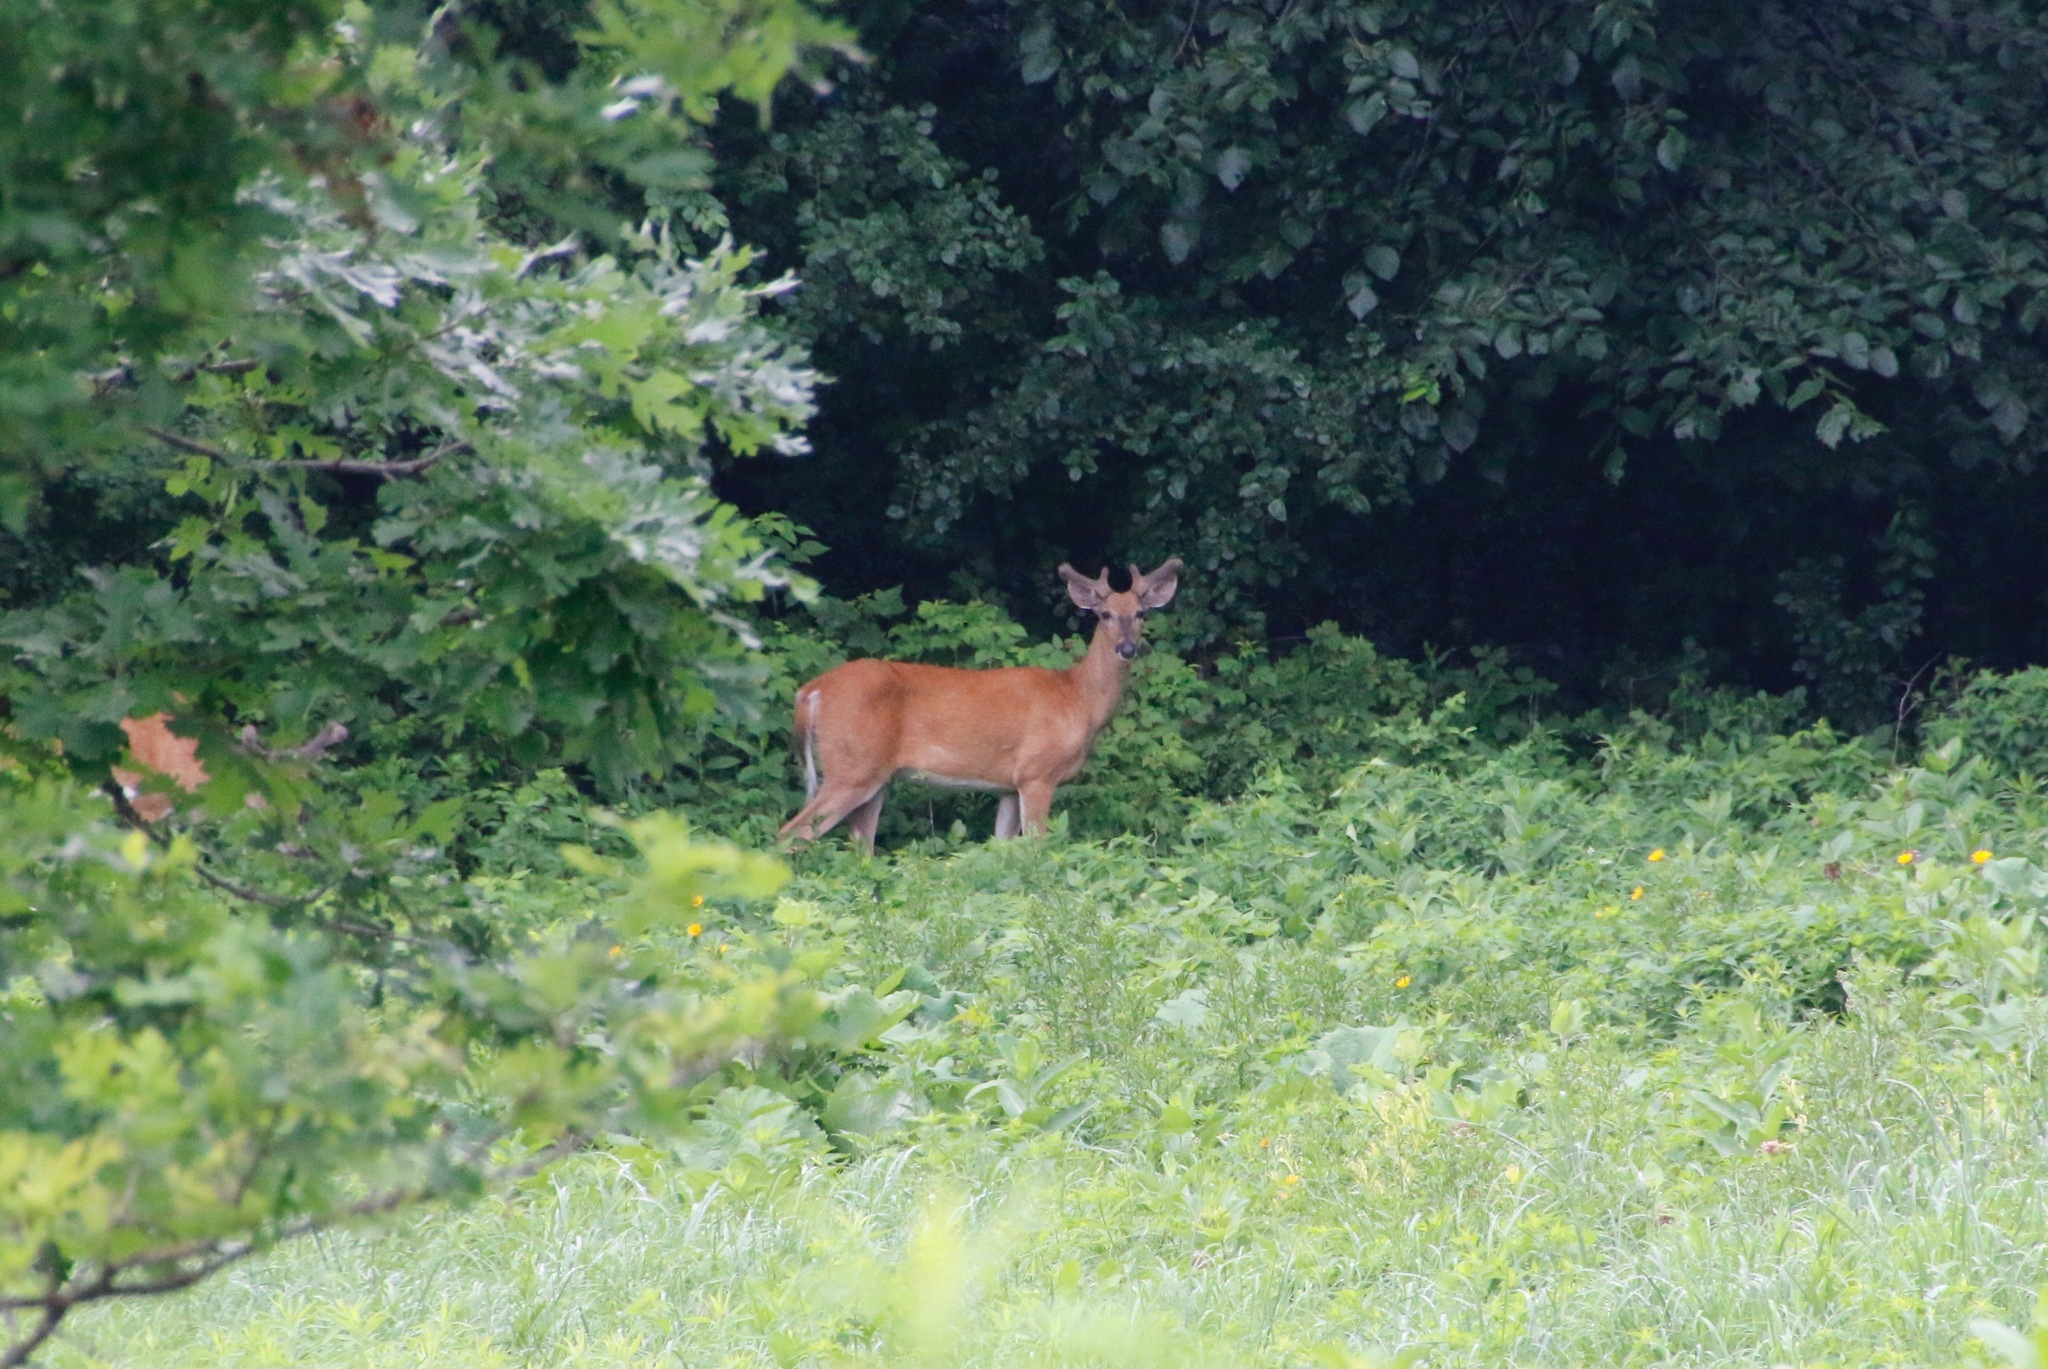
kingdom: Animalia
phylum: Chordata
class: Mammalia
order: Artiodactyla
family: Cervidae
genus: Odocoileus
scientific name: Odocoileus virginianus
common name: White-tailed deer
